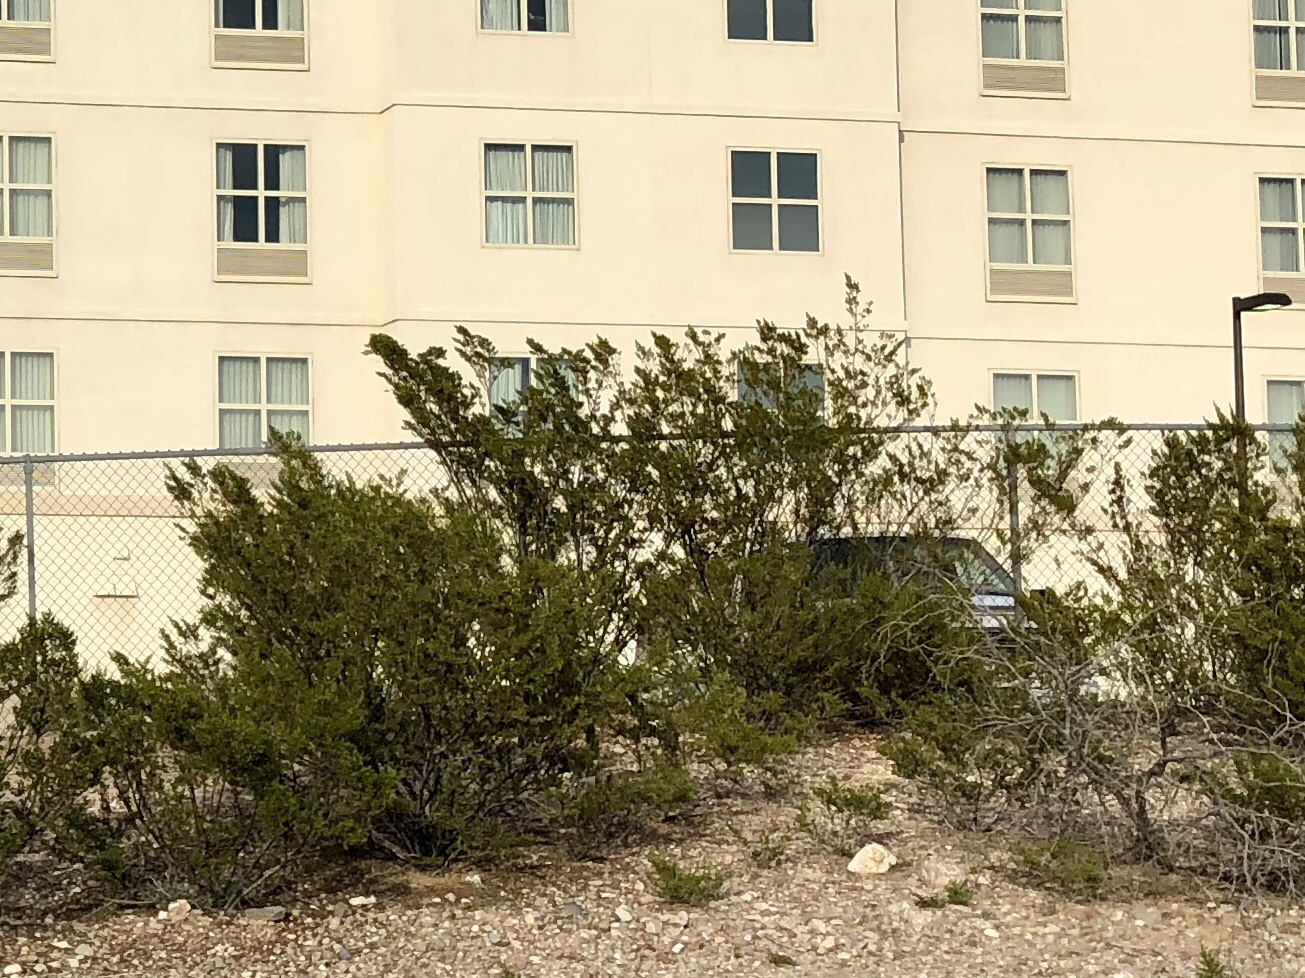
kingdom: Plantae
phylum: Tracheophyta
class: Magnoliopsida
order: Zygophyllales
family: Zygophyllaceae
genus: Larrea
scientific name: Larrea tridentata
